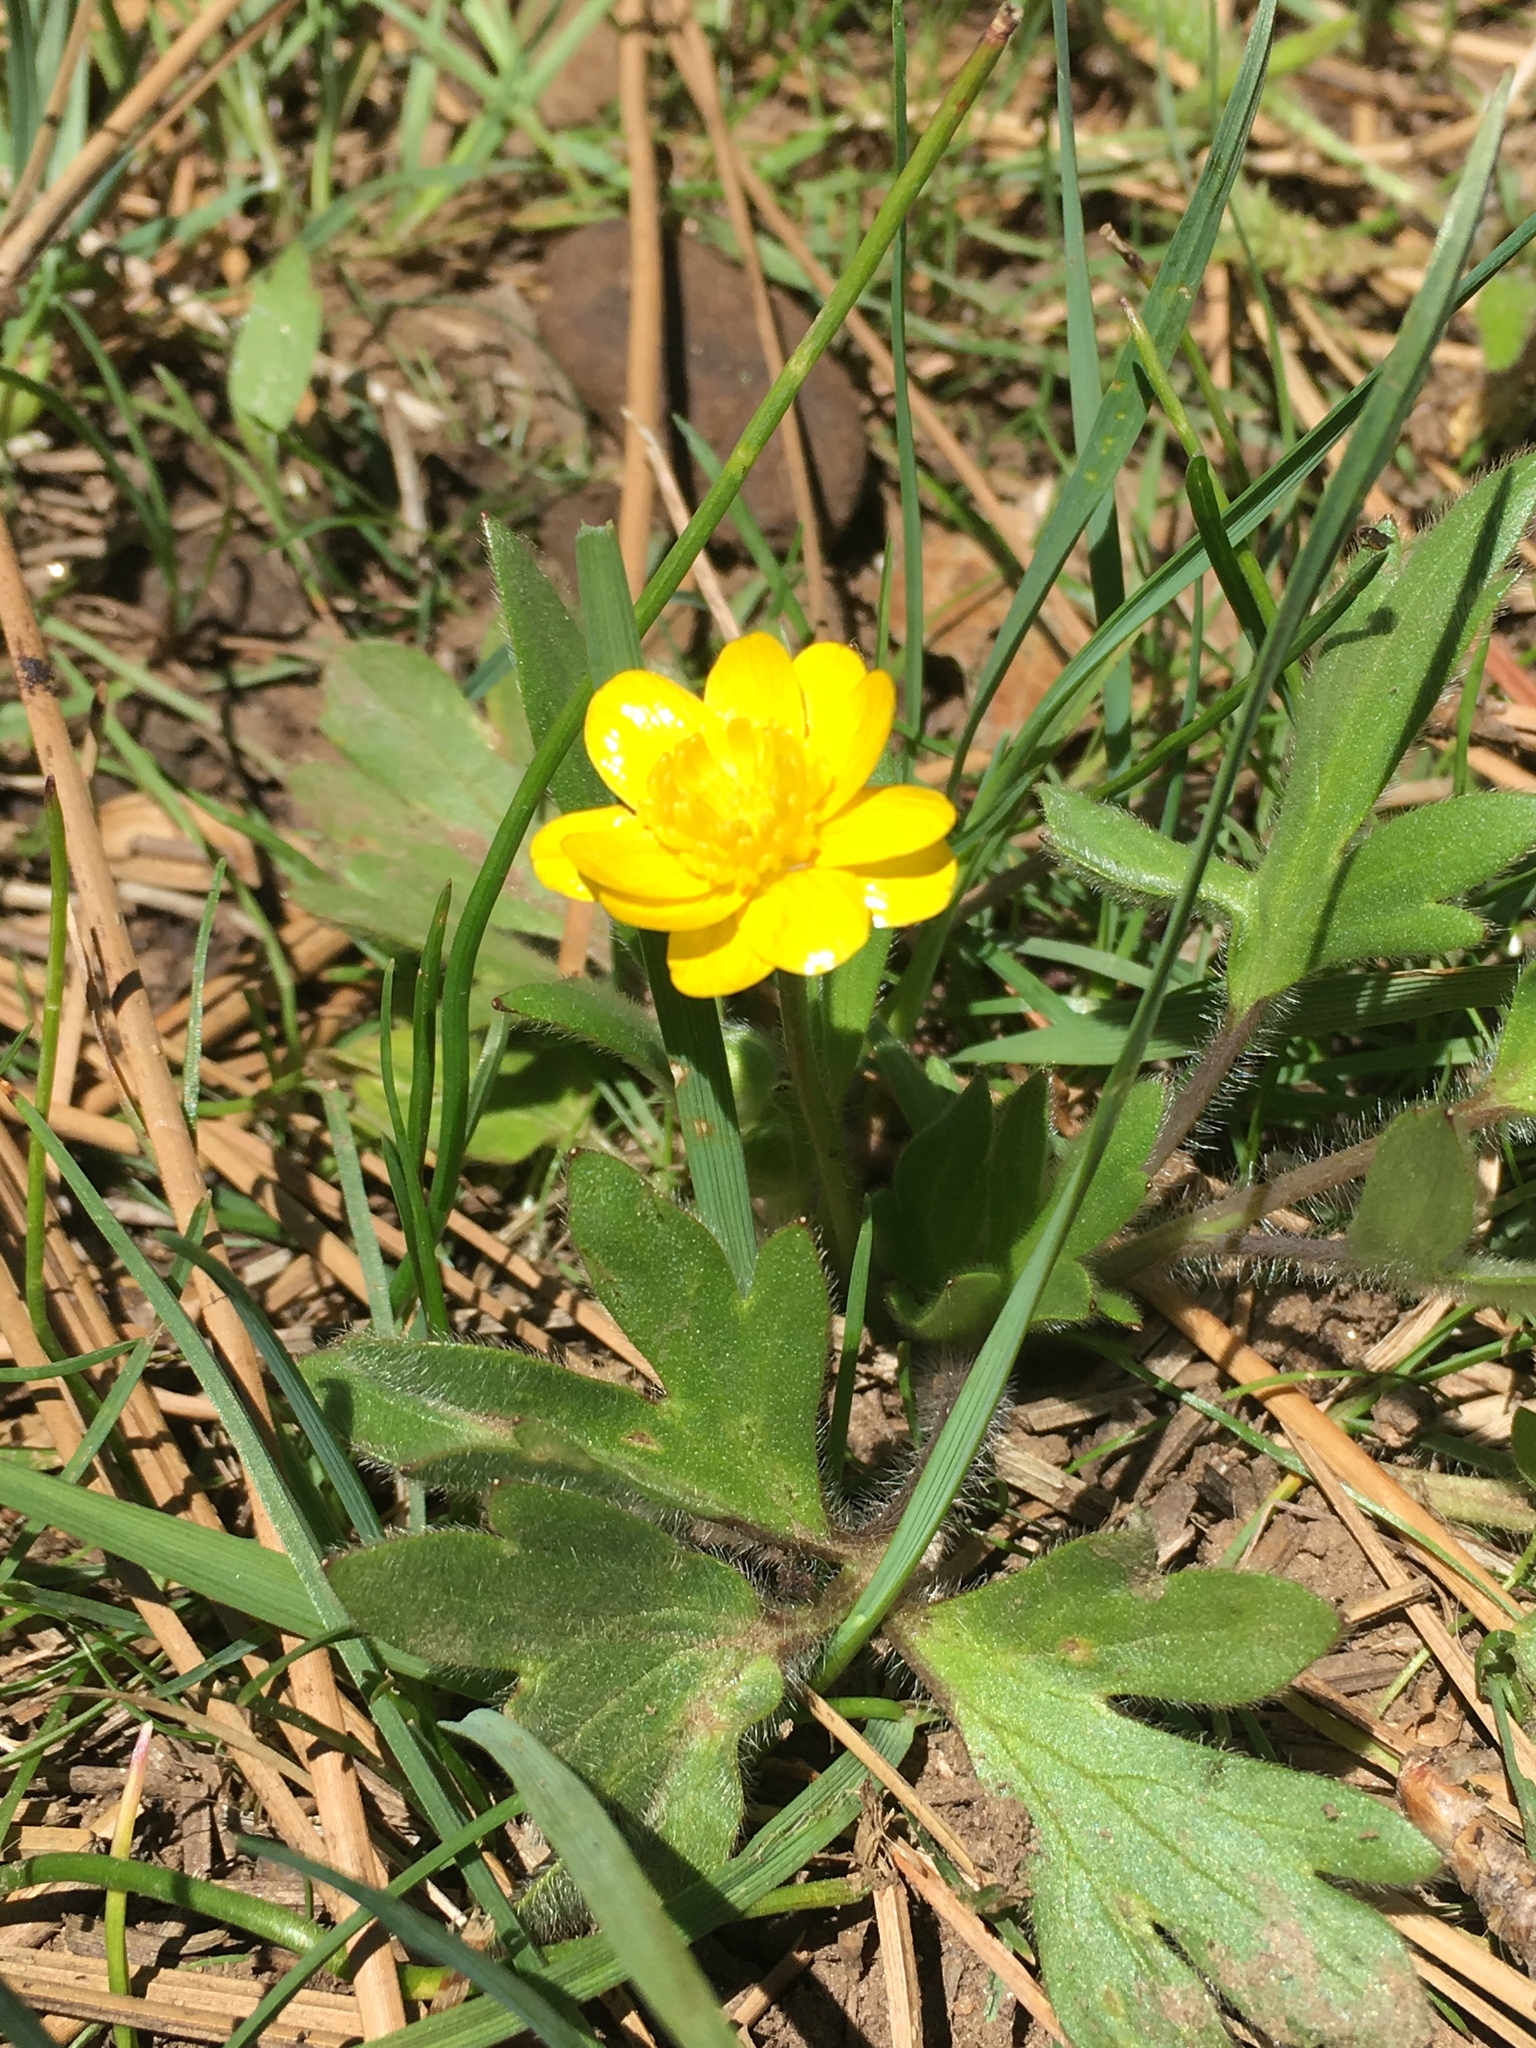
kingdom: Plantae
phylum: Tracheophyta
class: Magnoliopsida
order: Ranunculales
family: Ranunculaceae
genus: Ranunculus
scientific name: Ranunculus californicus
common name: California buttercup
